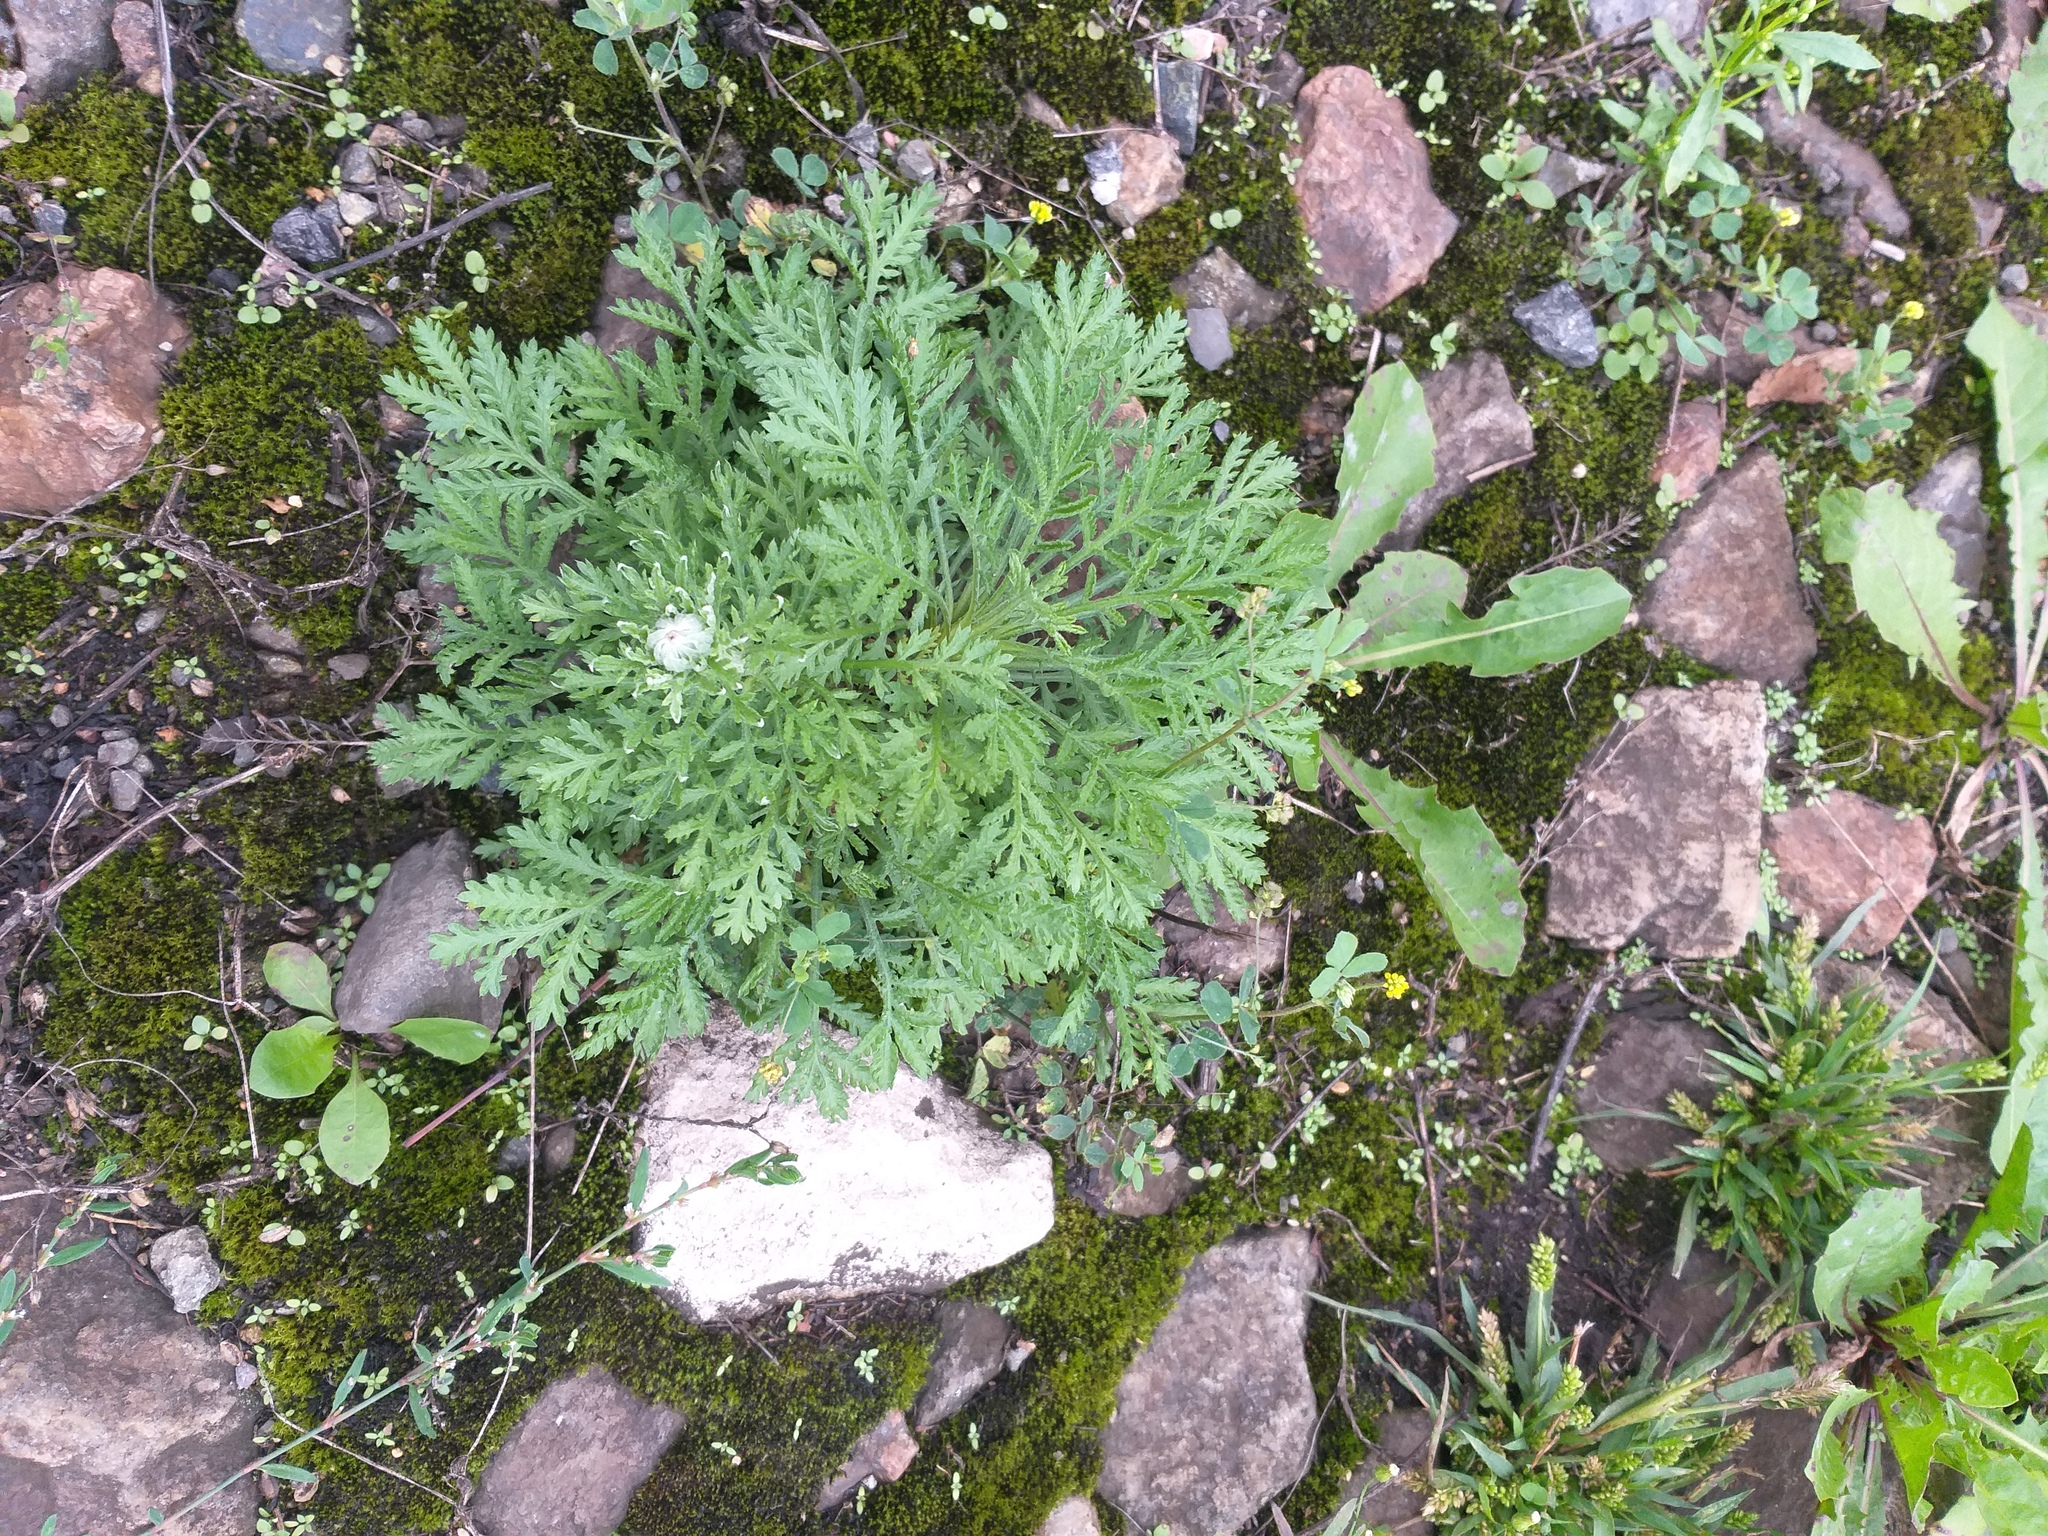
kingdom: Plantae
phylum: Tracheophyta
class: Magnoliopsida
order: Asterales
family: Asteraceae
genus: Cota
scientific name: Cota tinctoria
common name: Golden chamomile
